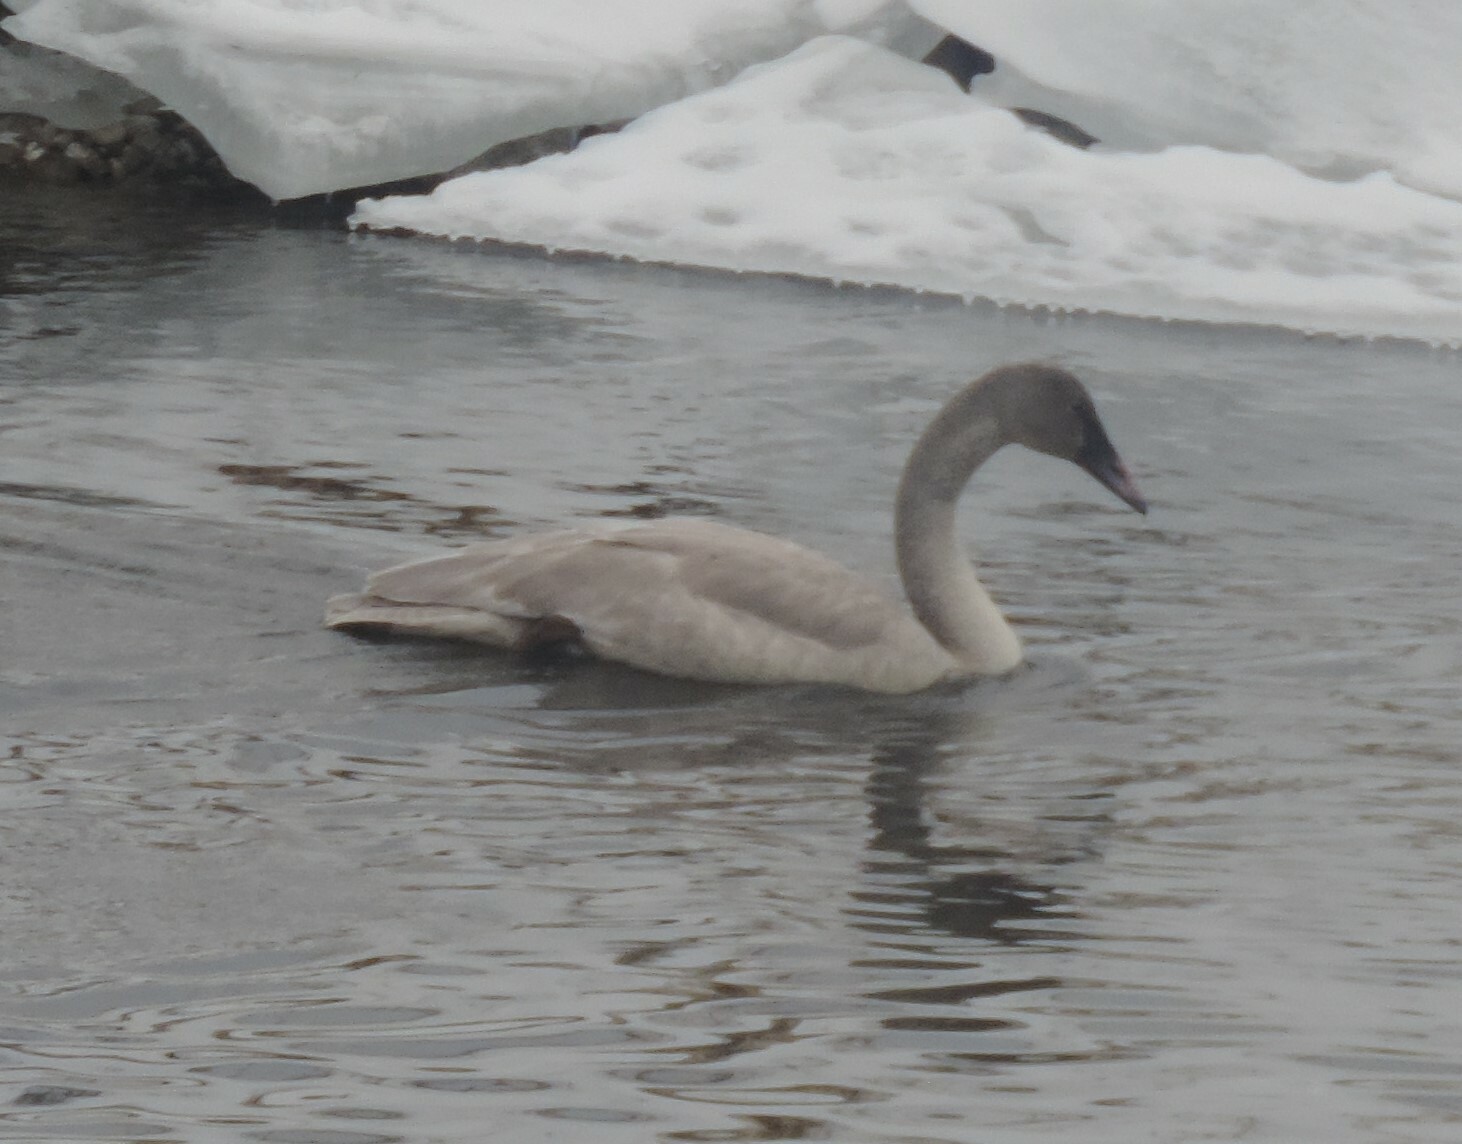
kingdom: Animalia
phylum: Chordata
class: Aves
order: Anseriformes
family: Anatidae
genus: Cygnus
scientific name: Cygnus buccinator
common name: Trumpeter swan
